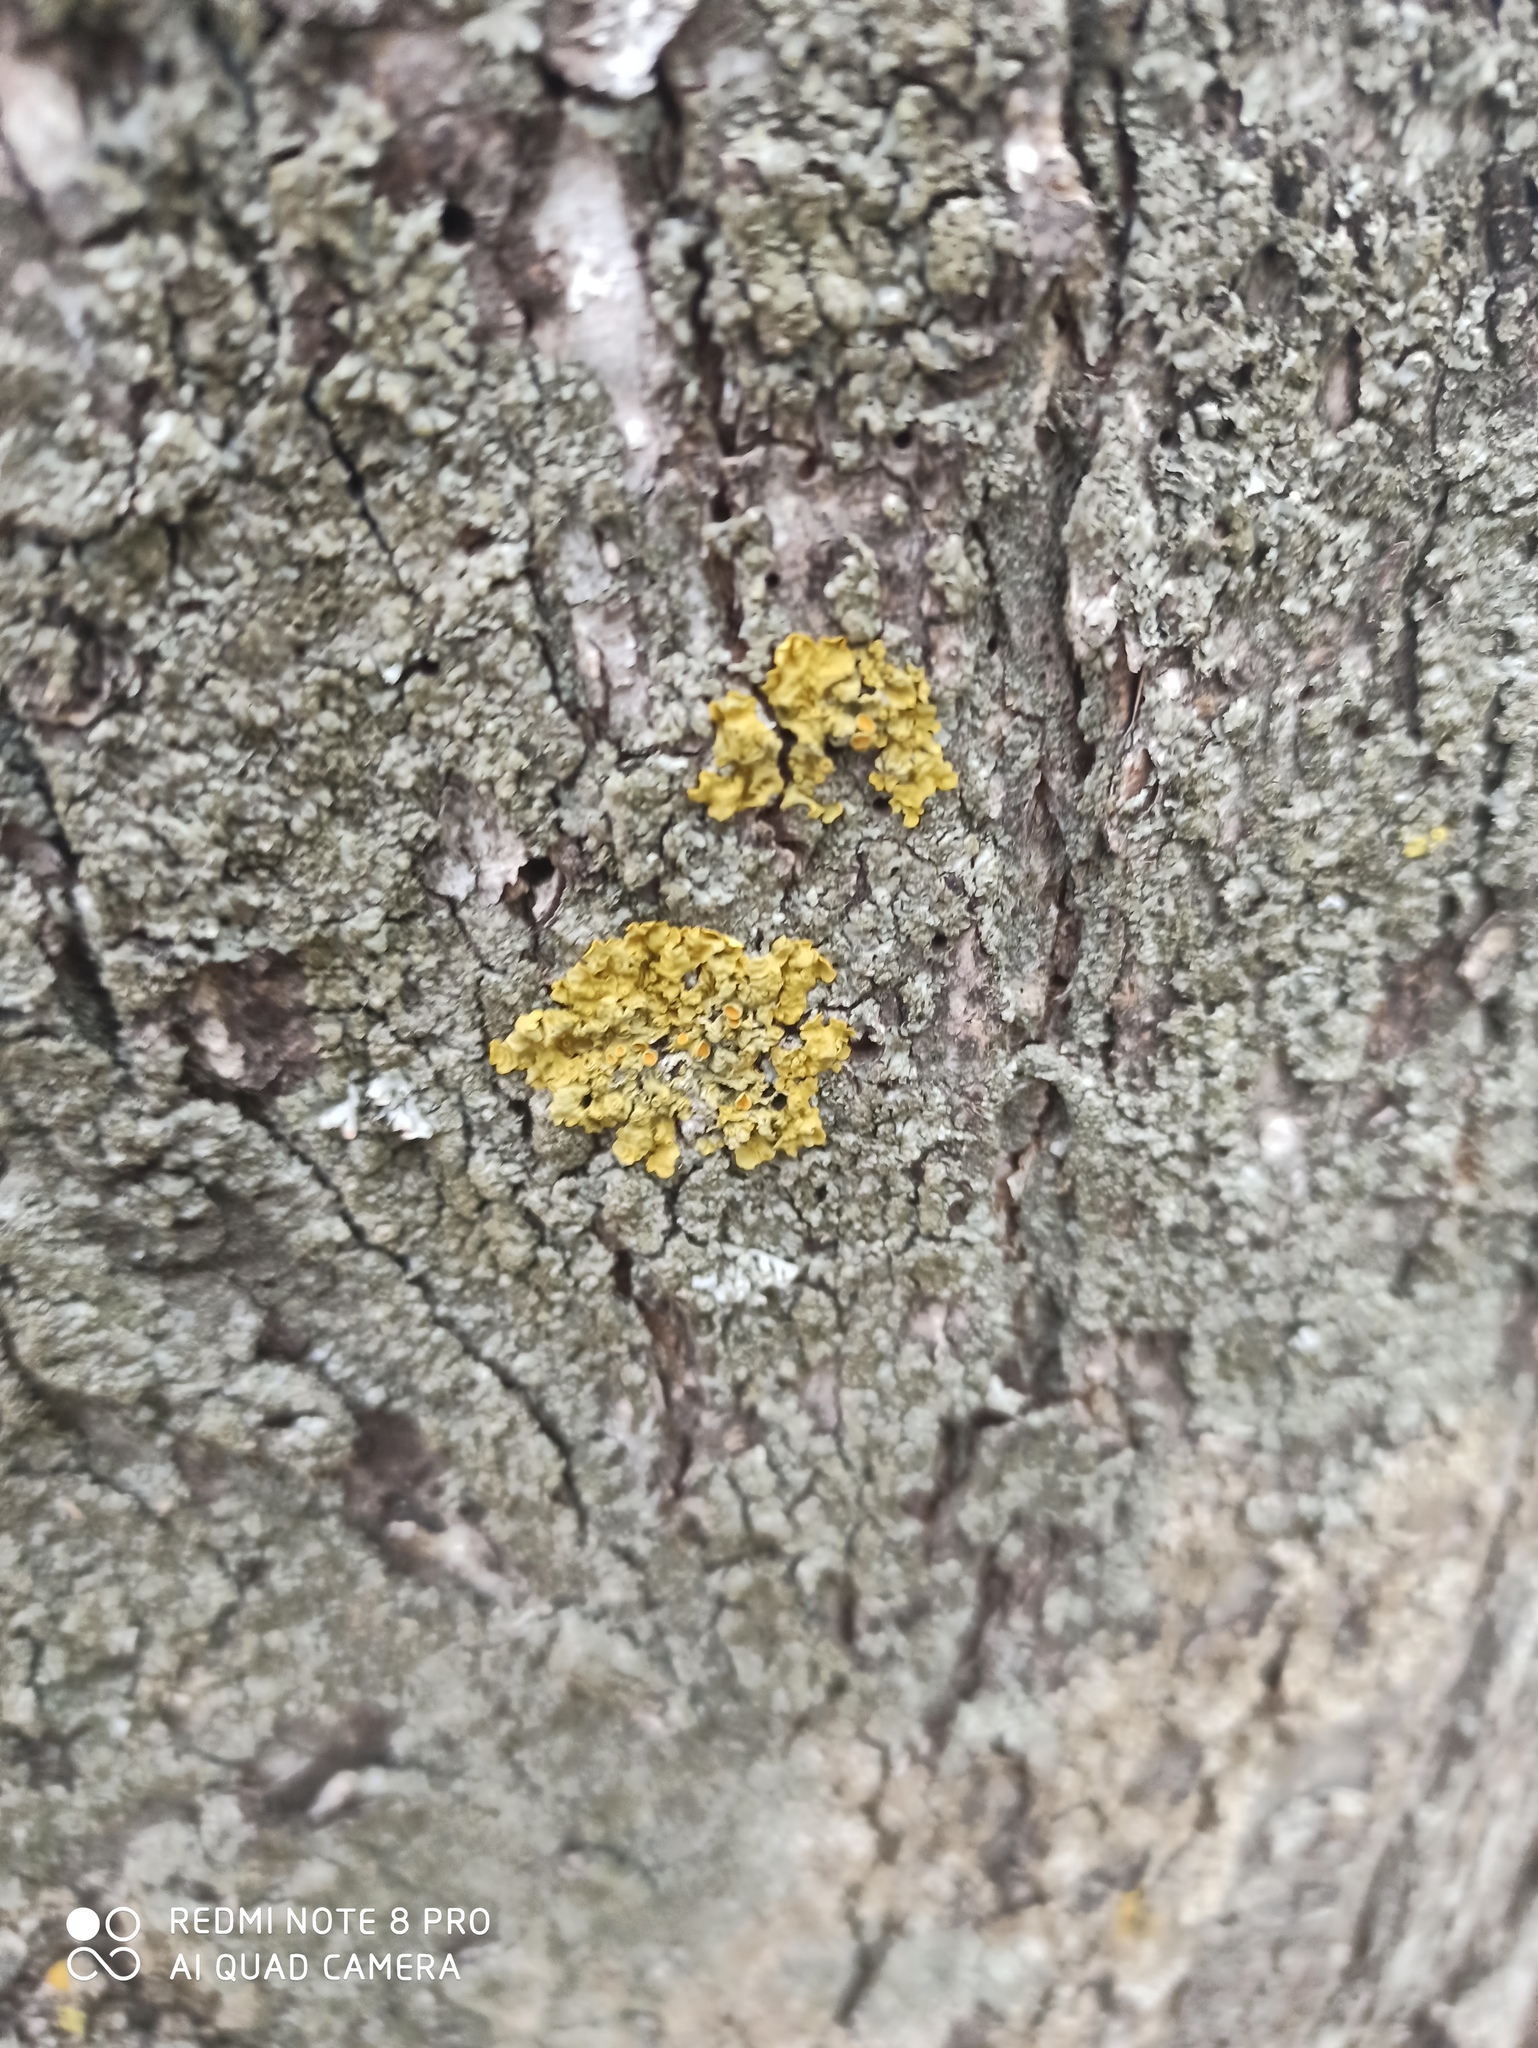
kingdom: Fungi
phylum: Ascomycota
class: Lecanoromycetes
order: Teloschistales
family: Teloschistaceae
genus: Xanthoria
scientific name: Xanthoria parietina
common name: Common orange lichen
